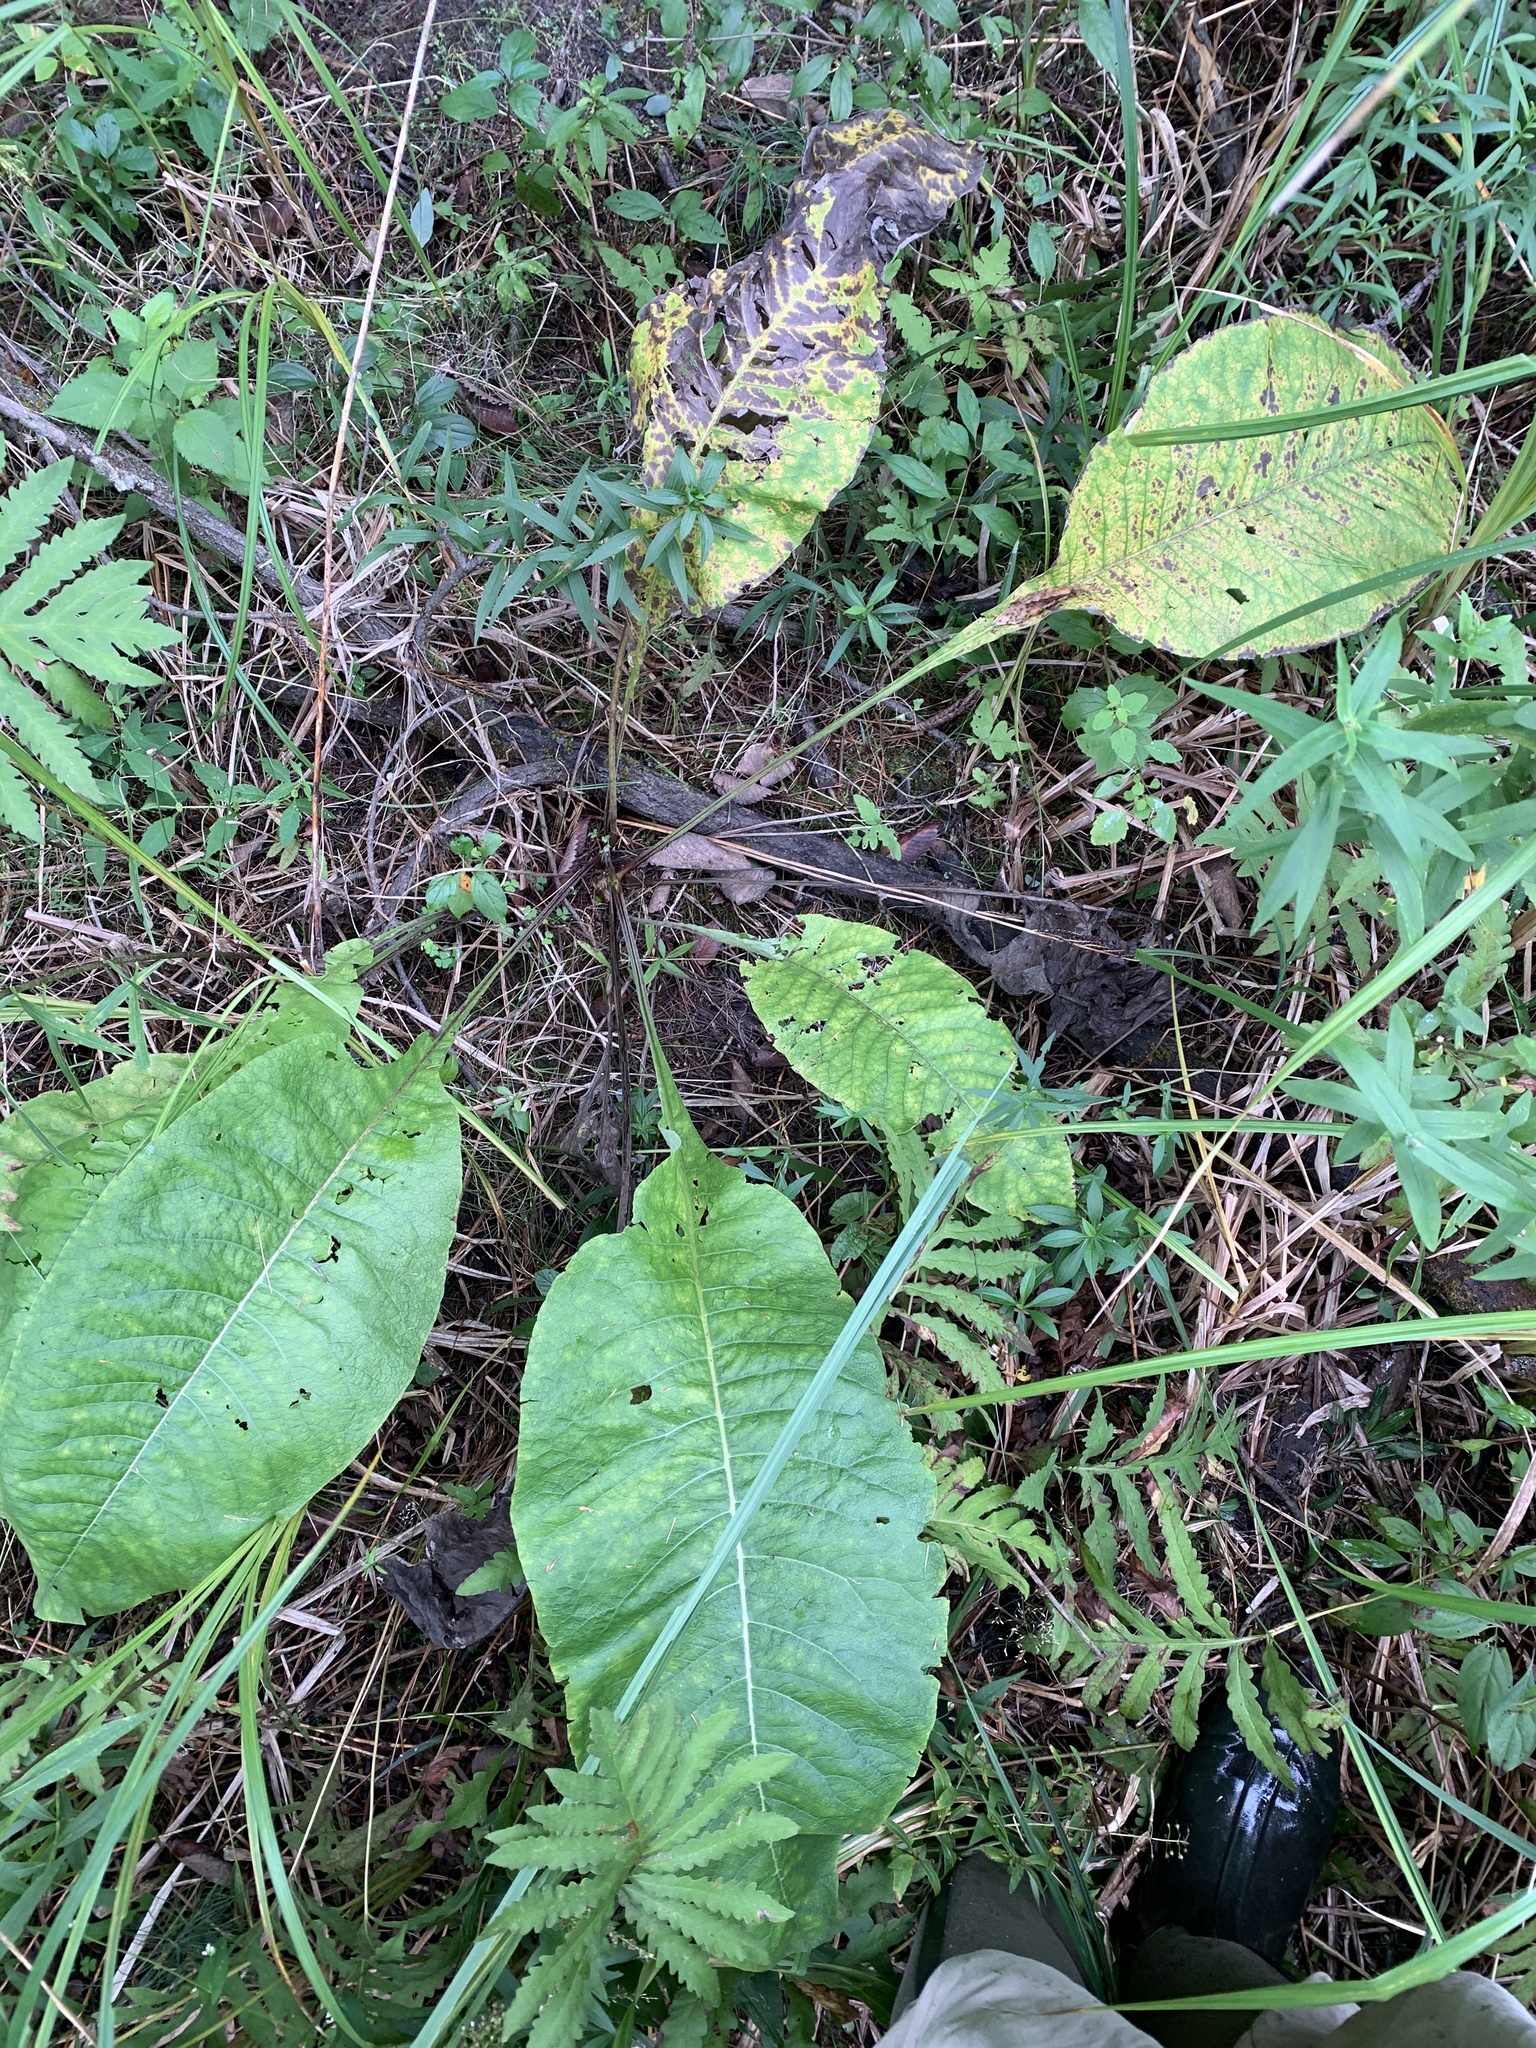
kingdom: Plantae
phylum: Tracheophyta
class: Magnoliopsida
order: Asterales
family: Asteraceae
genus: Inula
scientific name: Inula helenium
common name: Elecampane
